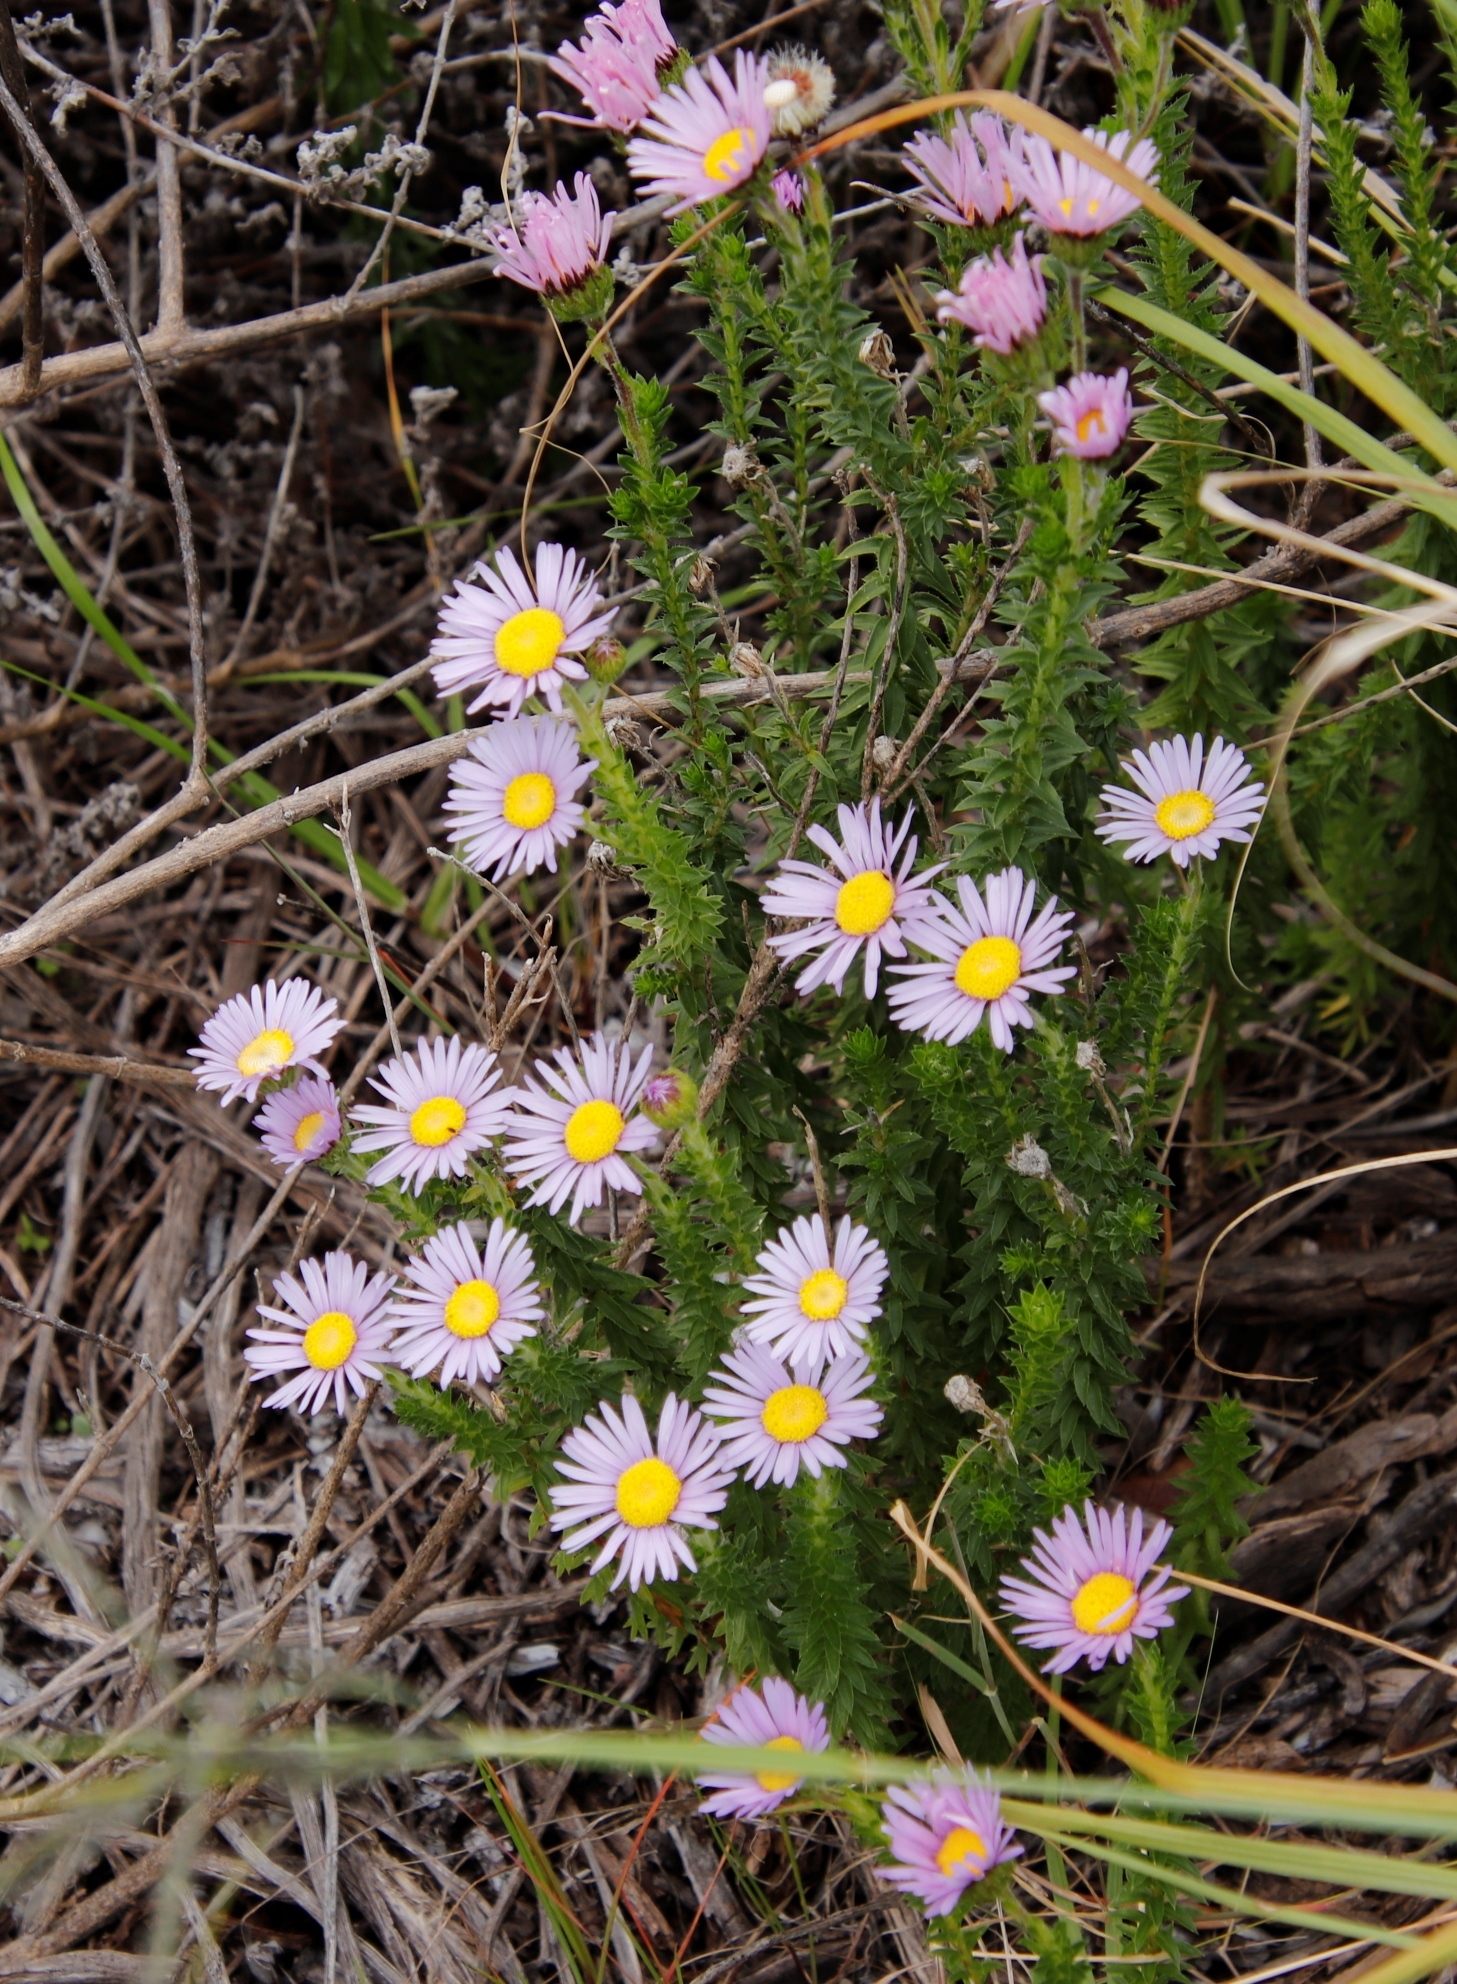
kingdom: Plantae
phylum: Tracheophyta
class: Magnoliopsida
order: Asterales
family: Asteraceae
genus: Felicia
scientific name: Felicia echinata
